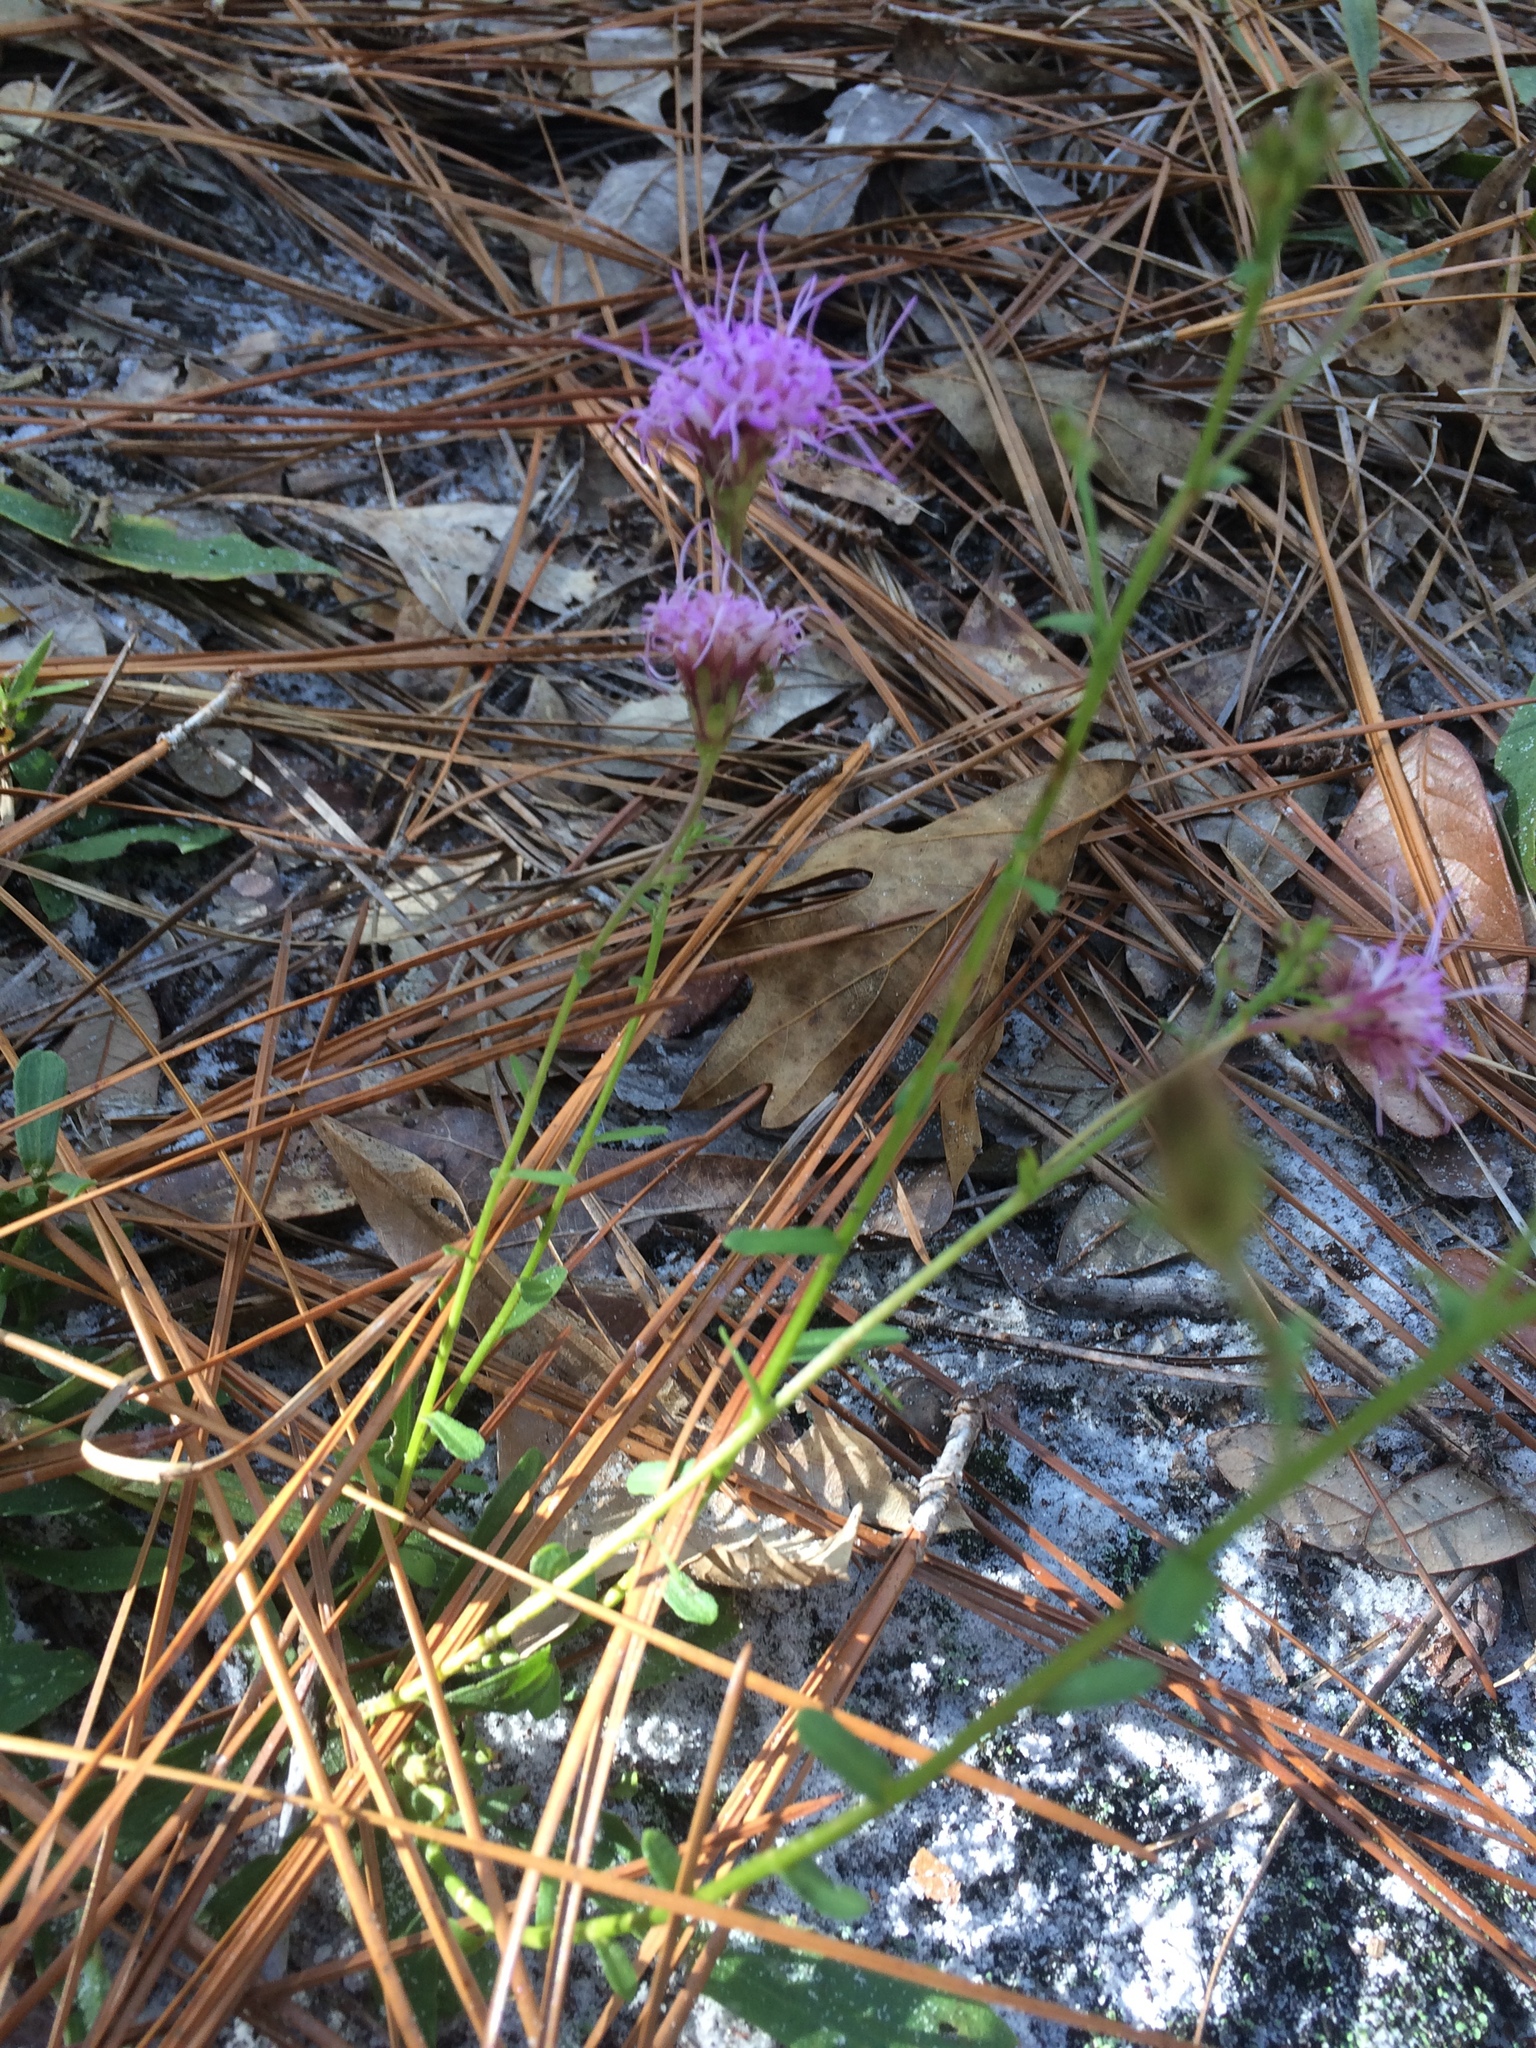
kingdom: Plantae
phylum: Tracheophyta
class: Magnoliopsida
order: Asterales
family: Asteraceae
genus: Carphephorus
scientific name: Carphephorus bellidifolius
